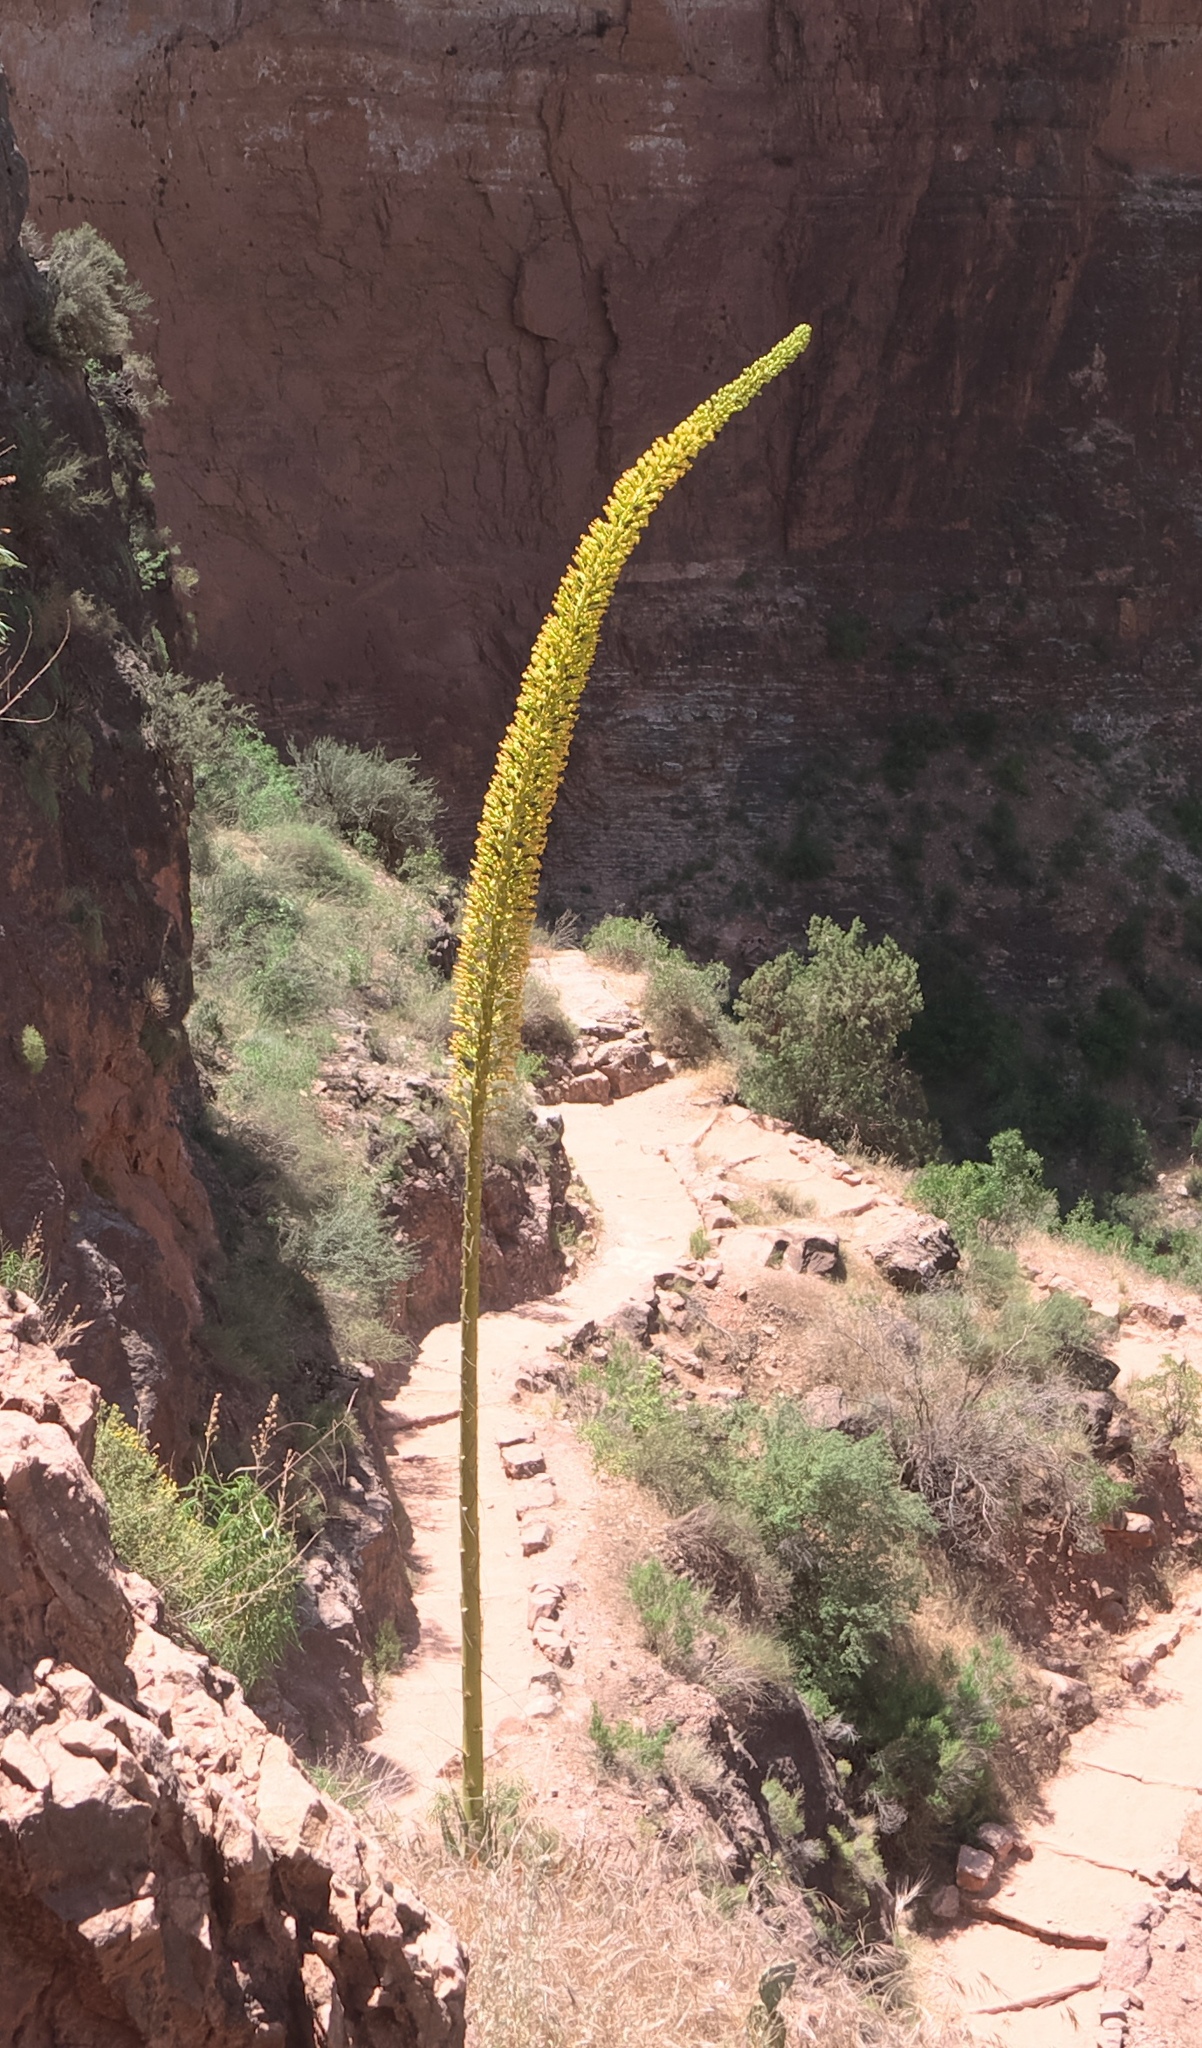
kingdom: Plantae
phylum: Tracheophyta
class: Liliopsida
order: Asparagales
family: Asparagaceae
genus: Agave
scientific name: Agave utahensis
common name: Utah agave
